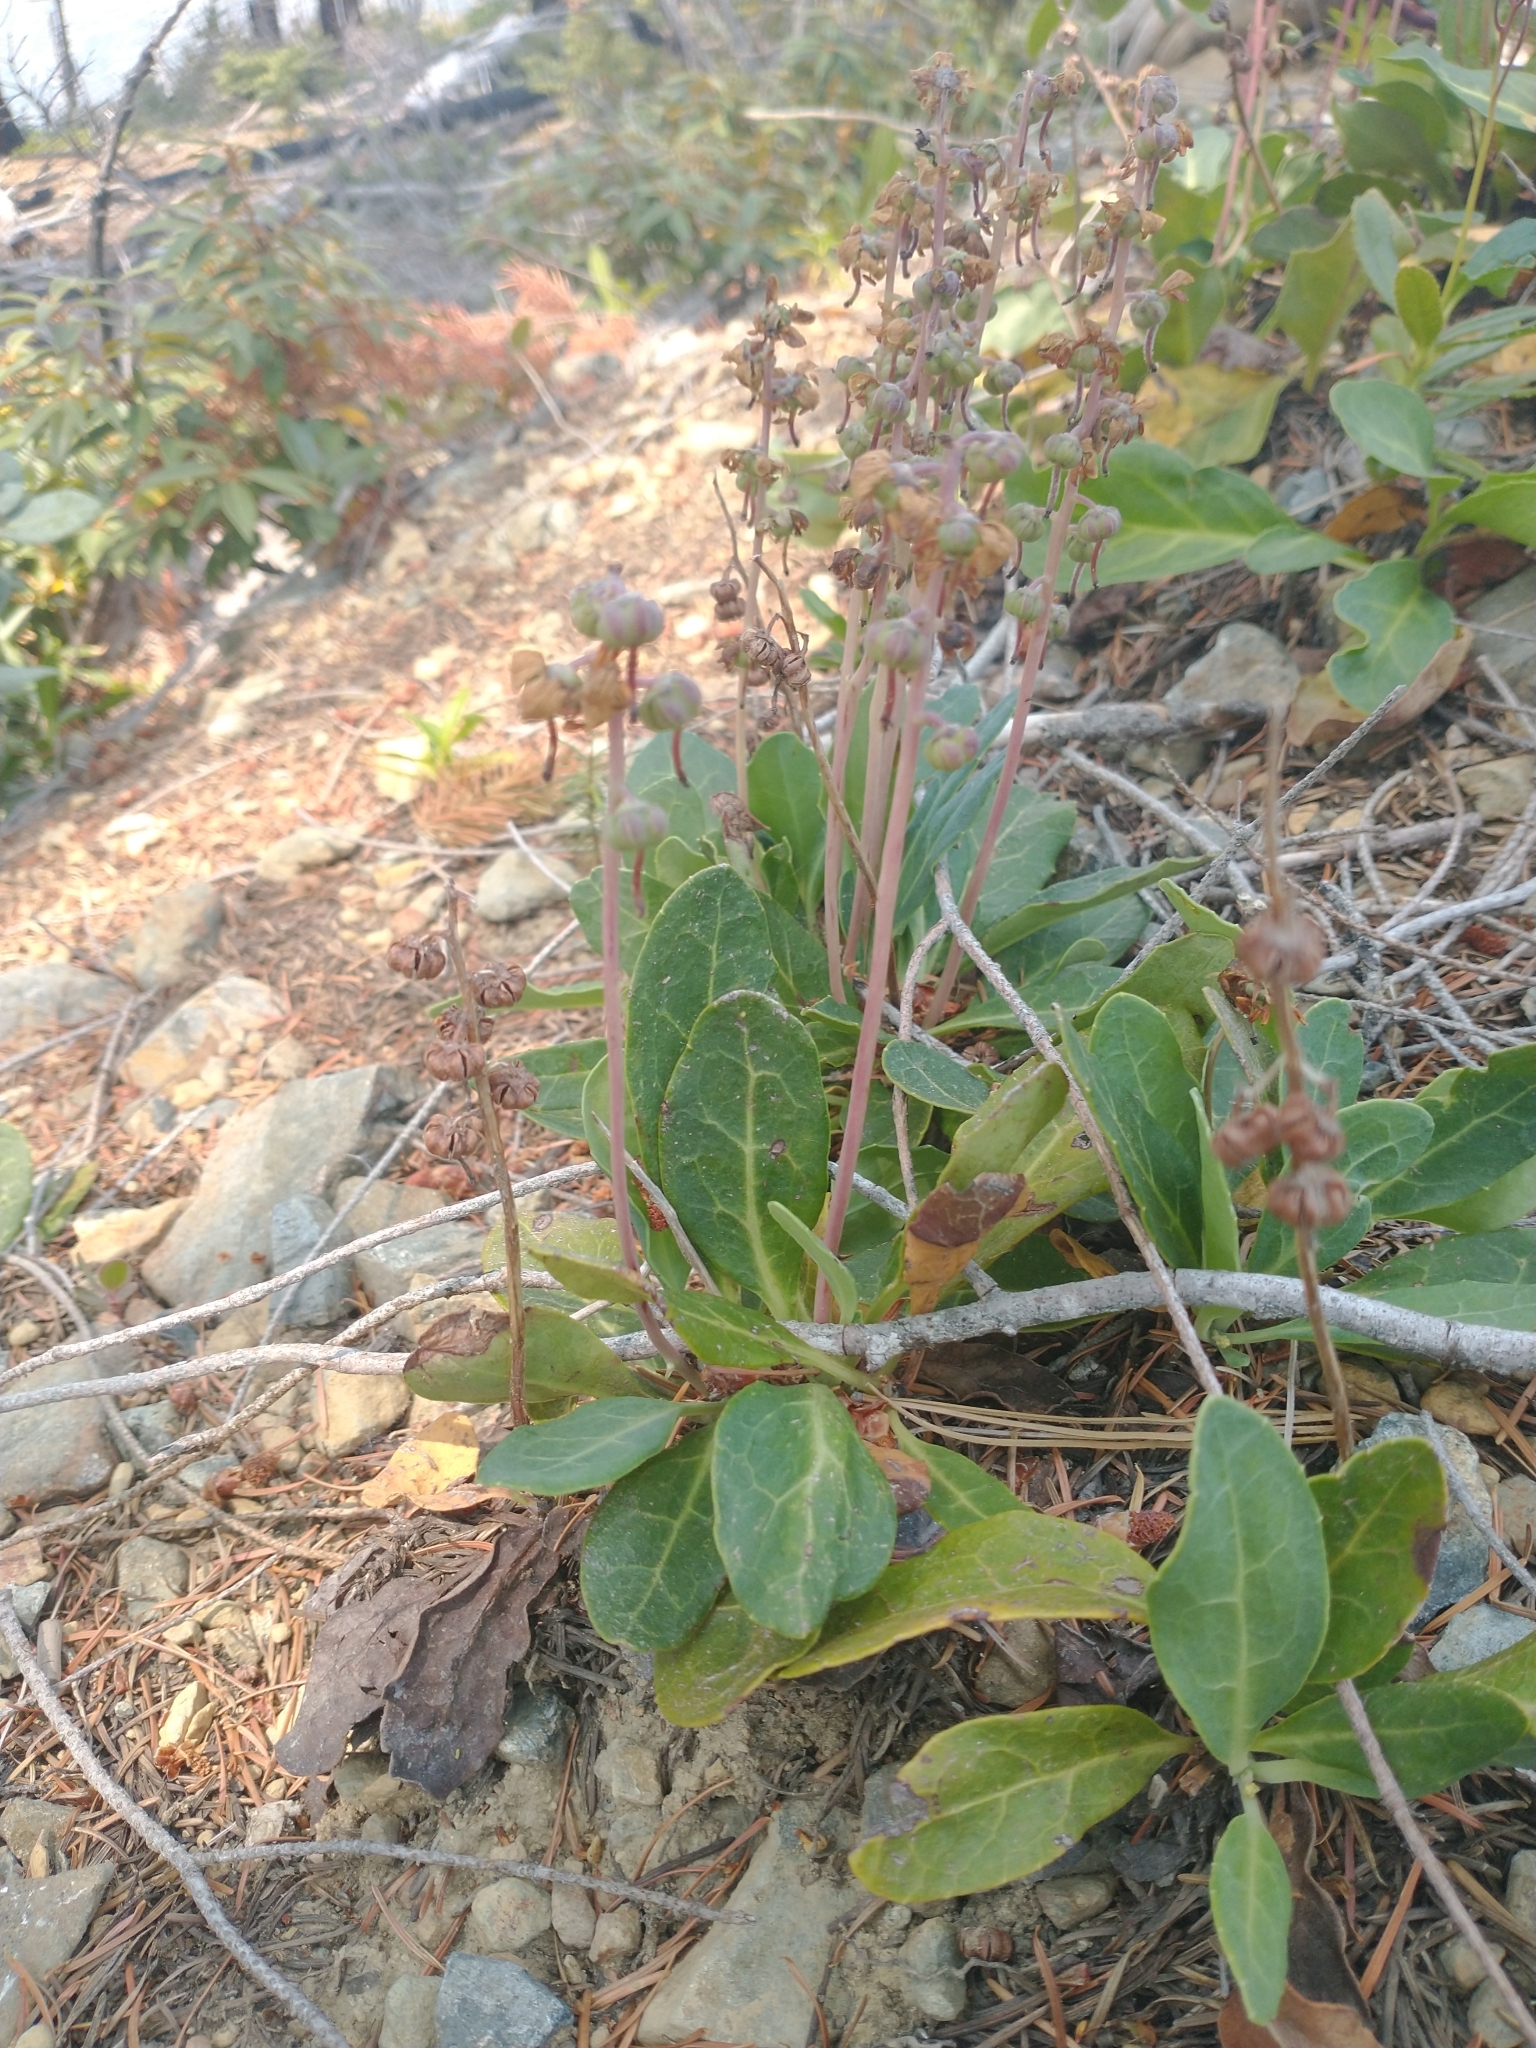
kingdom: Plantae
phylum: Tracheophyta
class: Magnoliopsida
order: Ericales
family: Ericaceae
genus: Pyrola
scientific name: Pyrola dentata
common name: Tooth-leaved wintergreen
